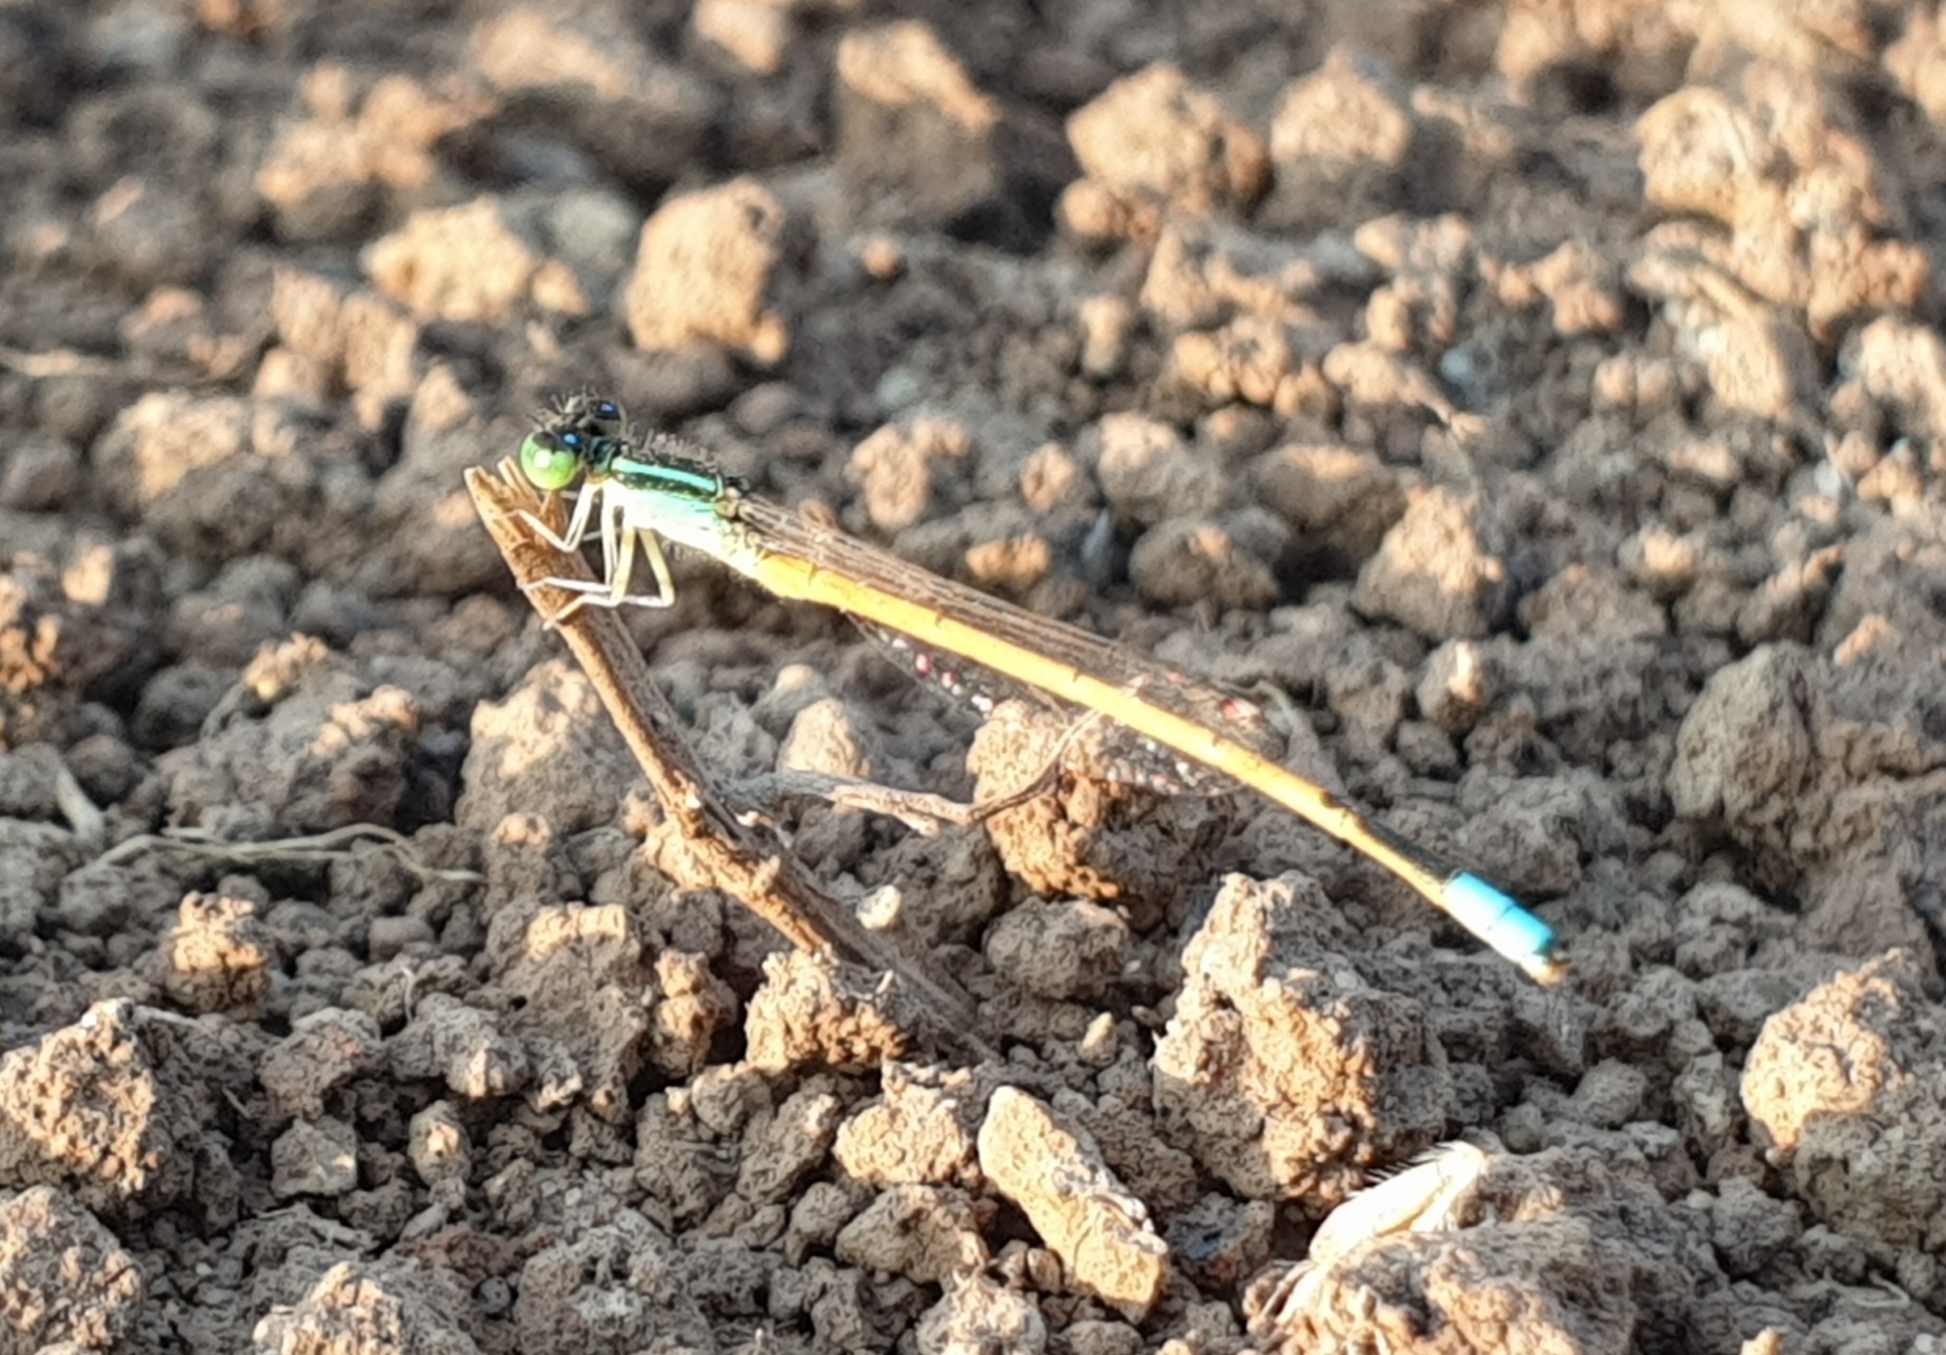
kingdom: Animalia
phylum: Arthropoda
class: Insecta
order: Odonata
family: Coenagrionidae
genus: Ischnura
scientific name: Ischnura rubilio
